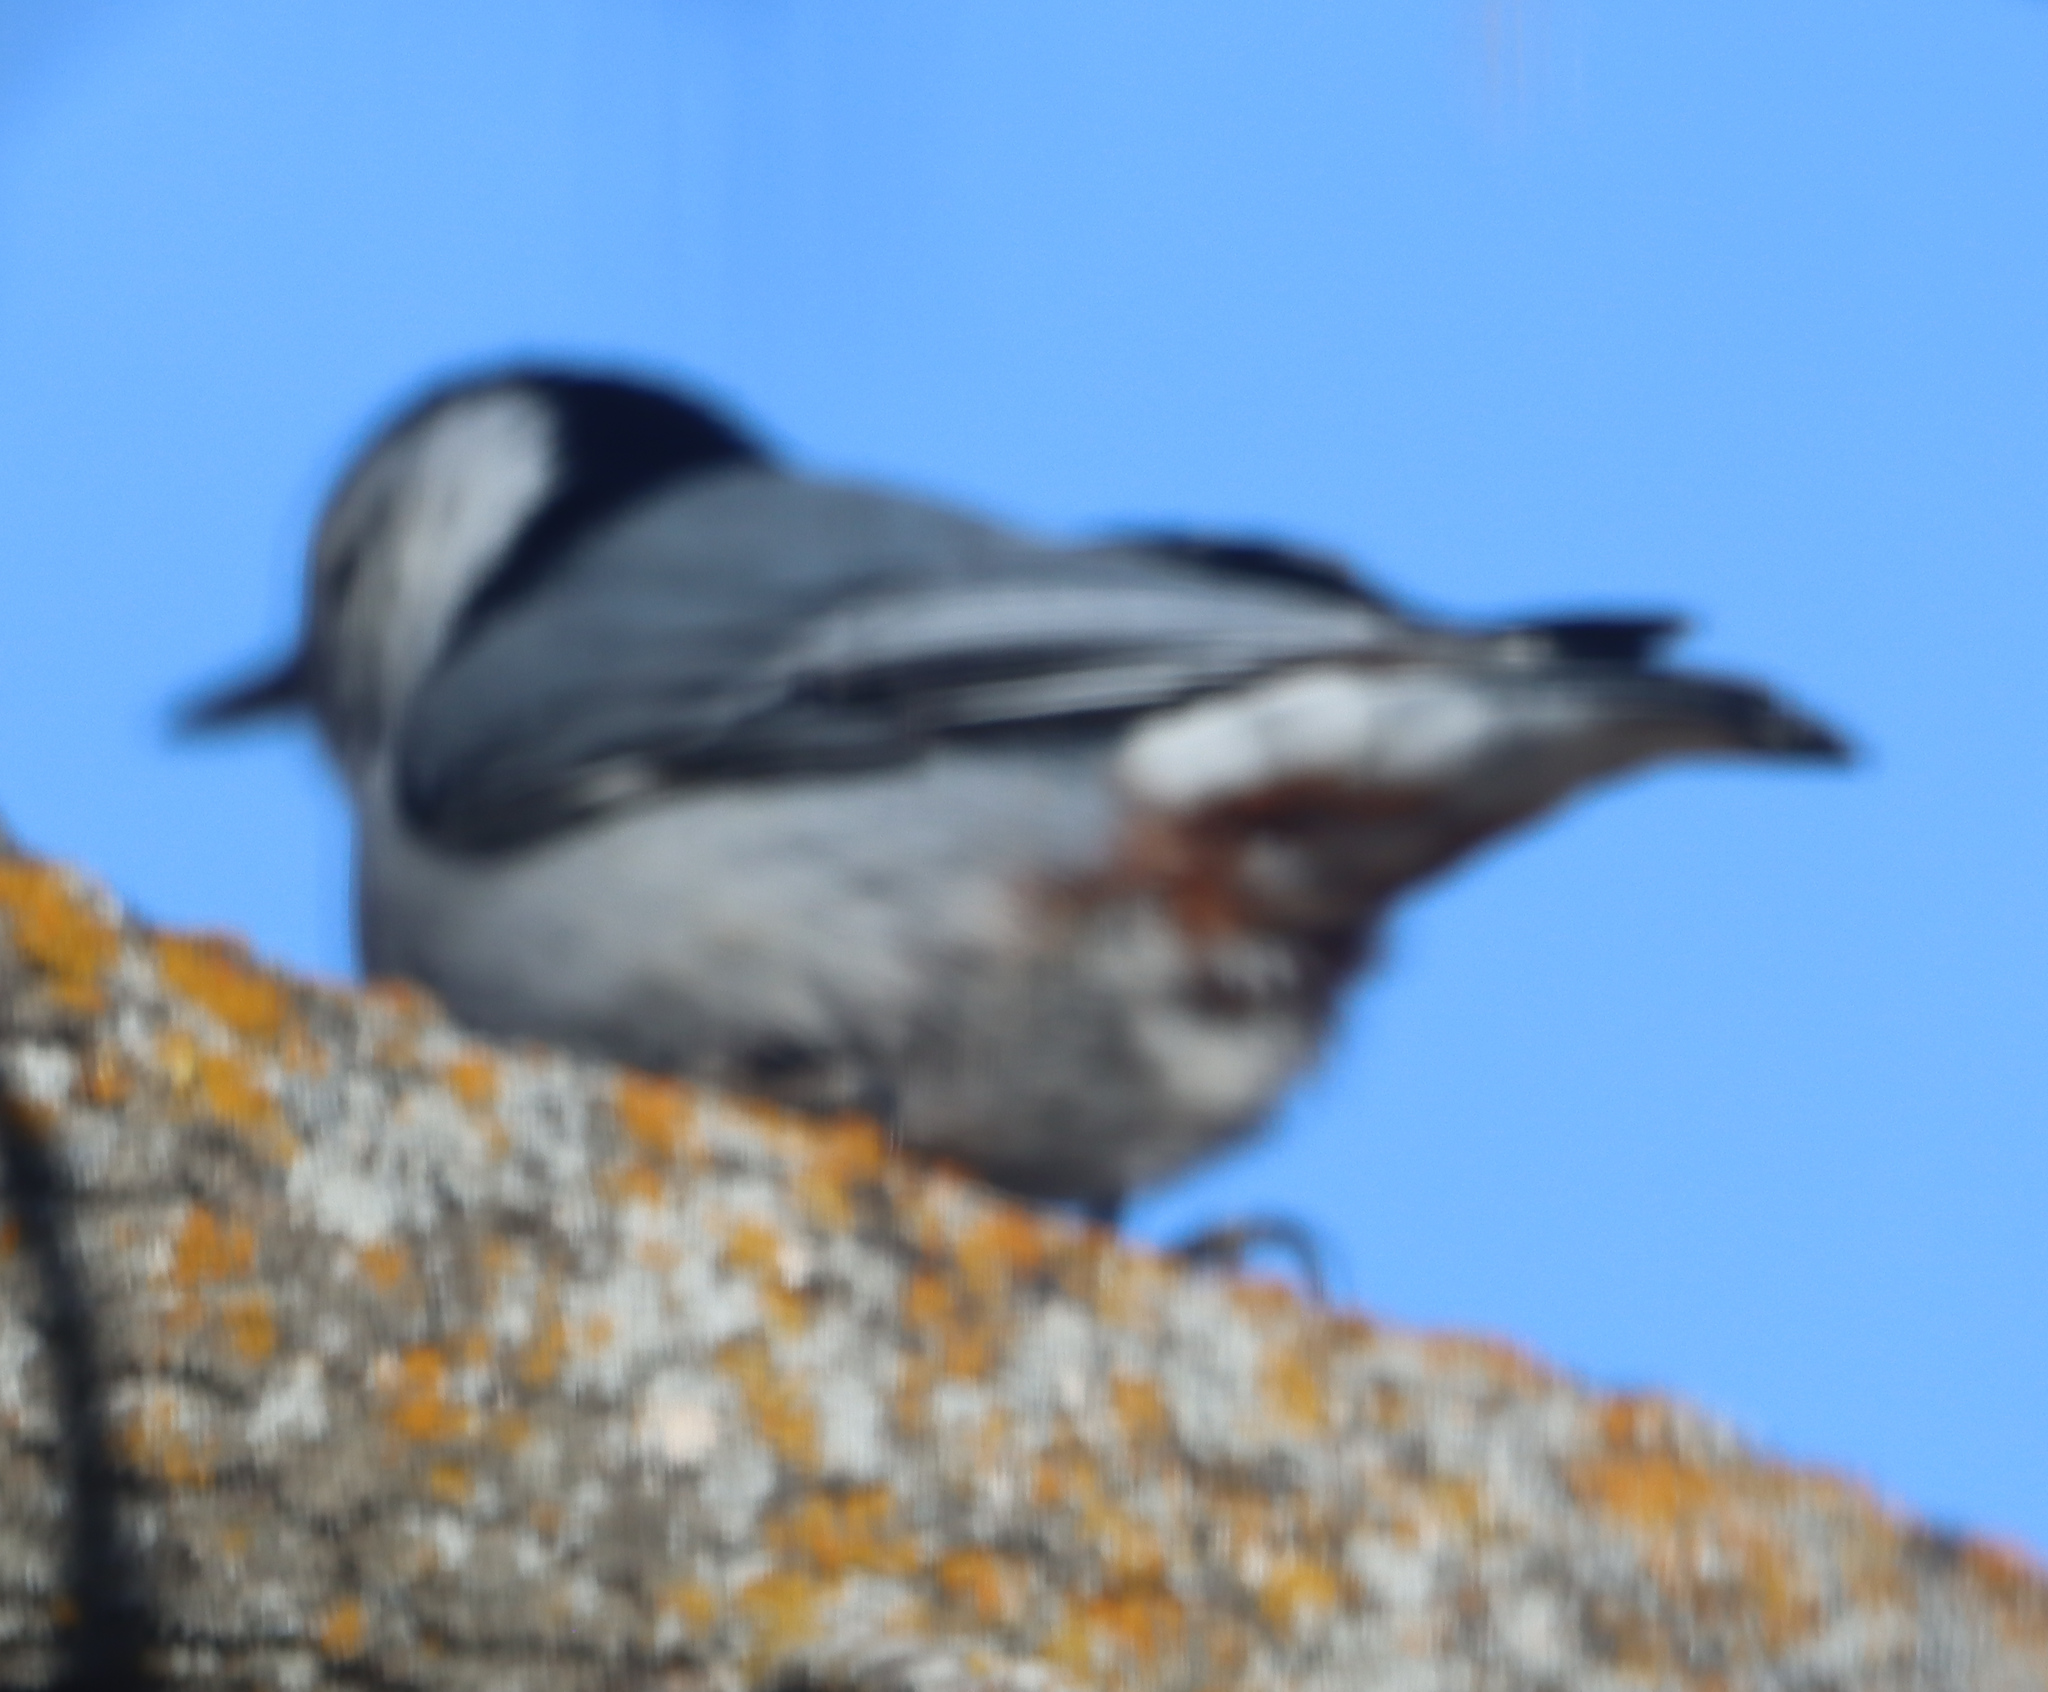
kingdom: Animalia
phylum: Chordata
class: Aves
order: Passeriformes
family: Sittidae
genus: Sitta
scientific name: Sitta carolinensis
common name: White-breasted nuthatch
